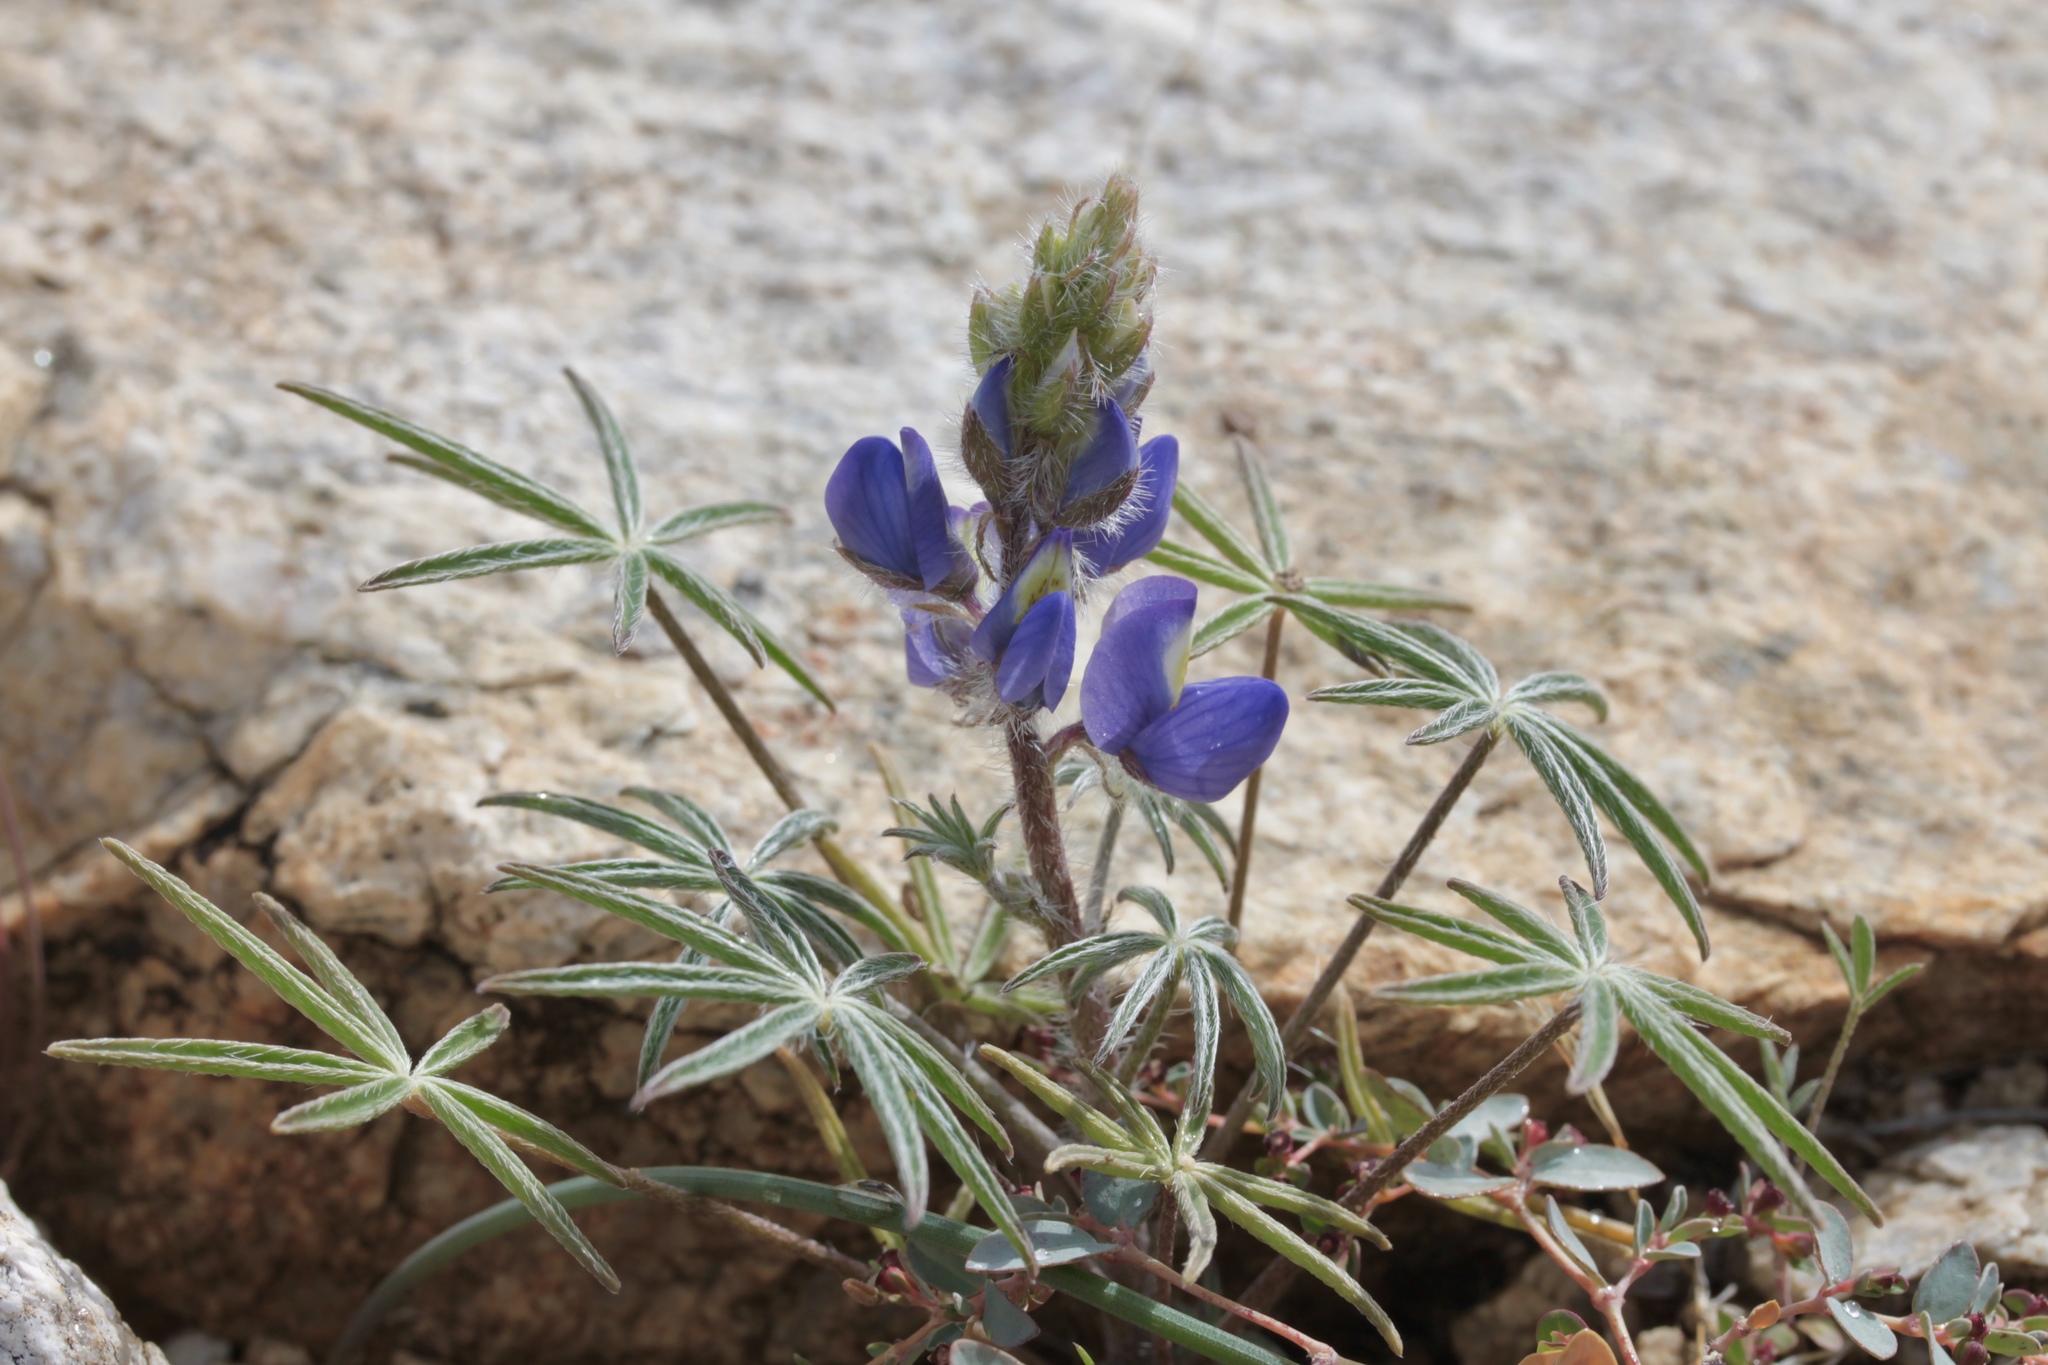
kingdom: Plantae
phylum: Tracheophyta
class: Magnoliopsida
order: Fabales
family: Fabaceae
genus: Lupinus
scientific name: Lupinus sparsiflorus
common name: Coulter's lupine
